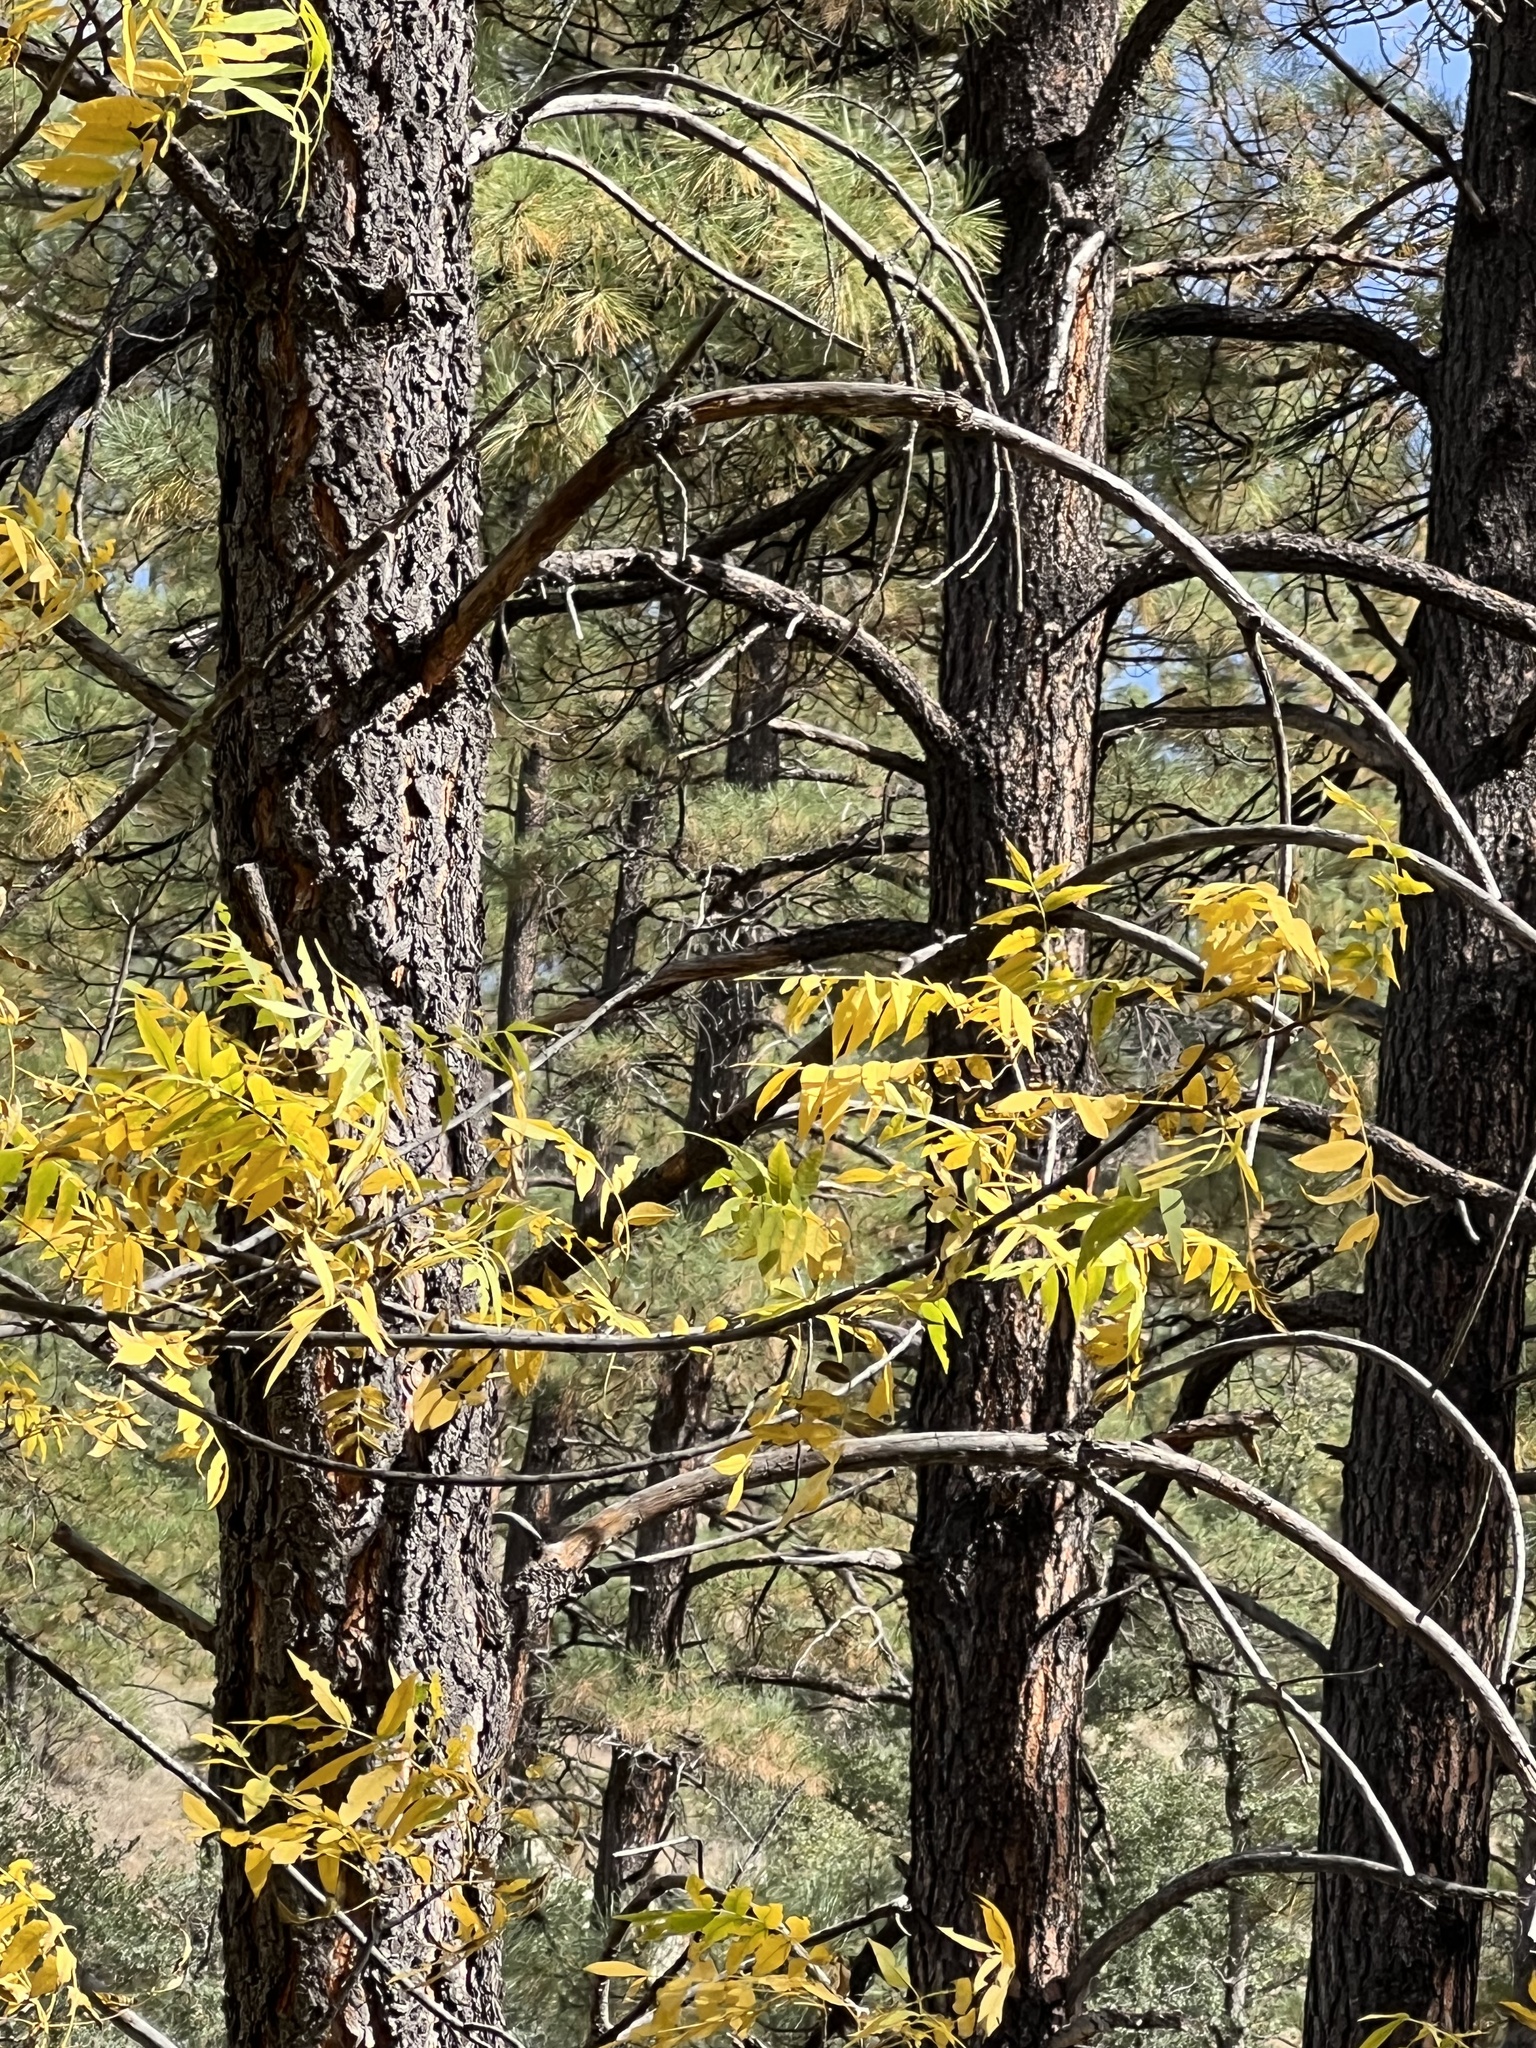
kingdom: Plantae
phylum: Tracheophyta
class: Magnoliopsida
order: Fagales
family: Juglandaceae
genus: Juglans
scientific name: Juglans major
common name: Arizona walnut
